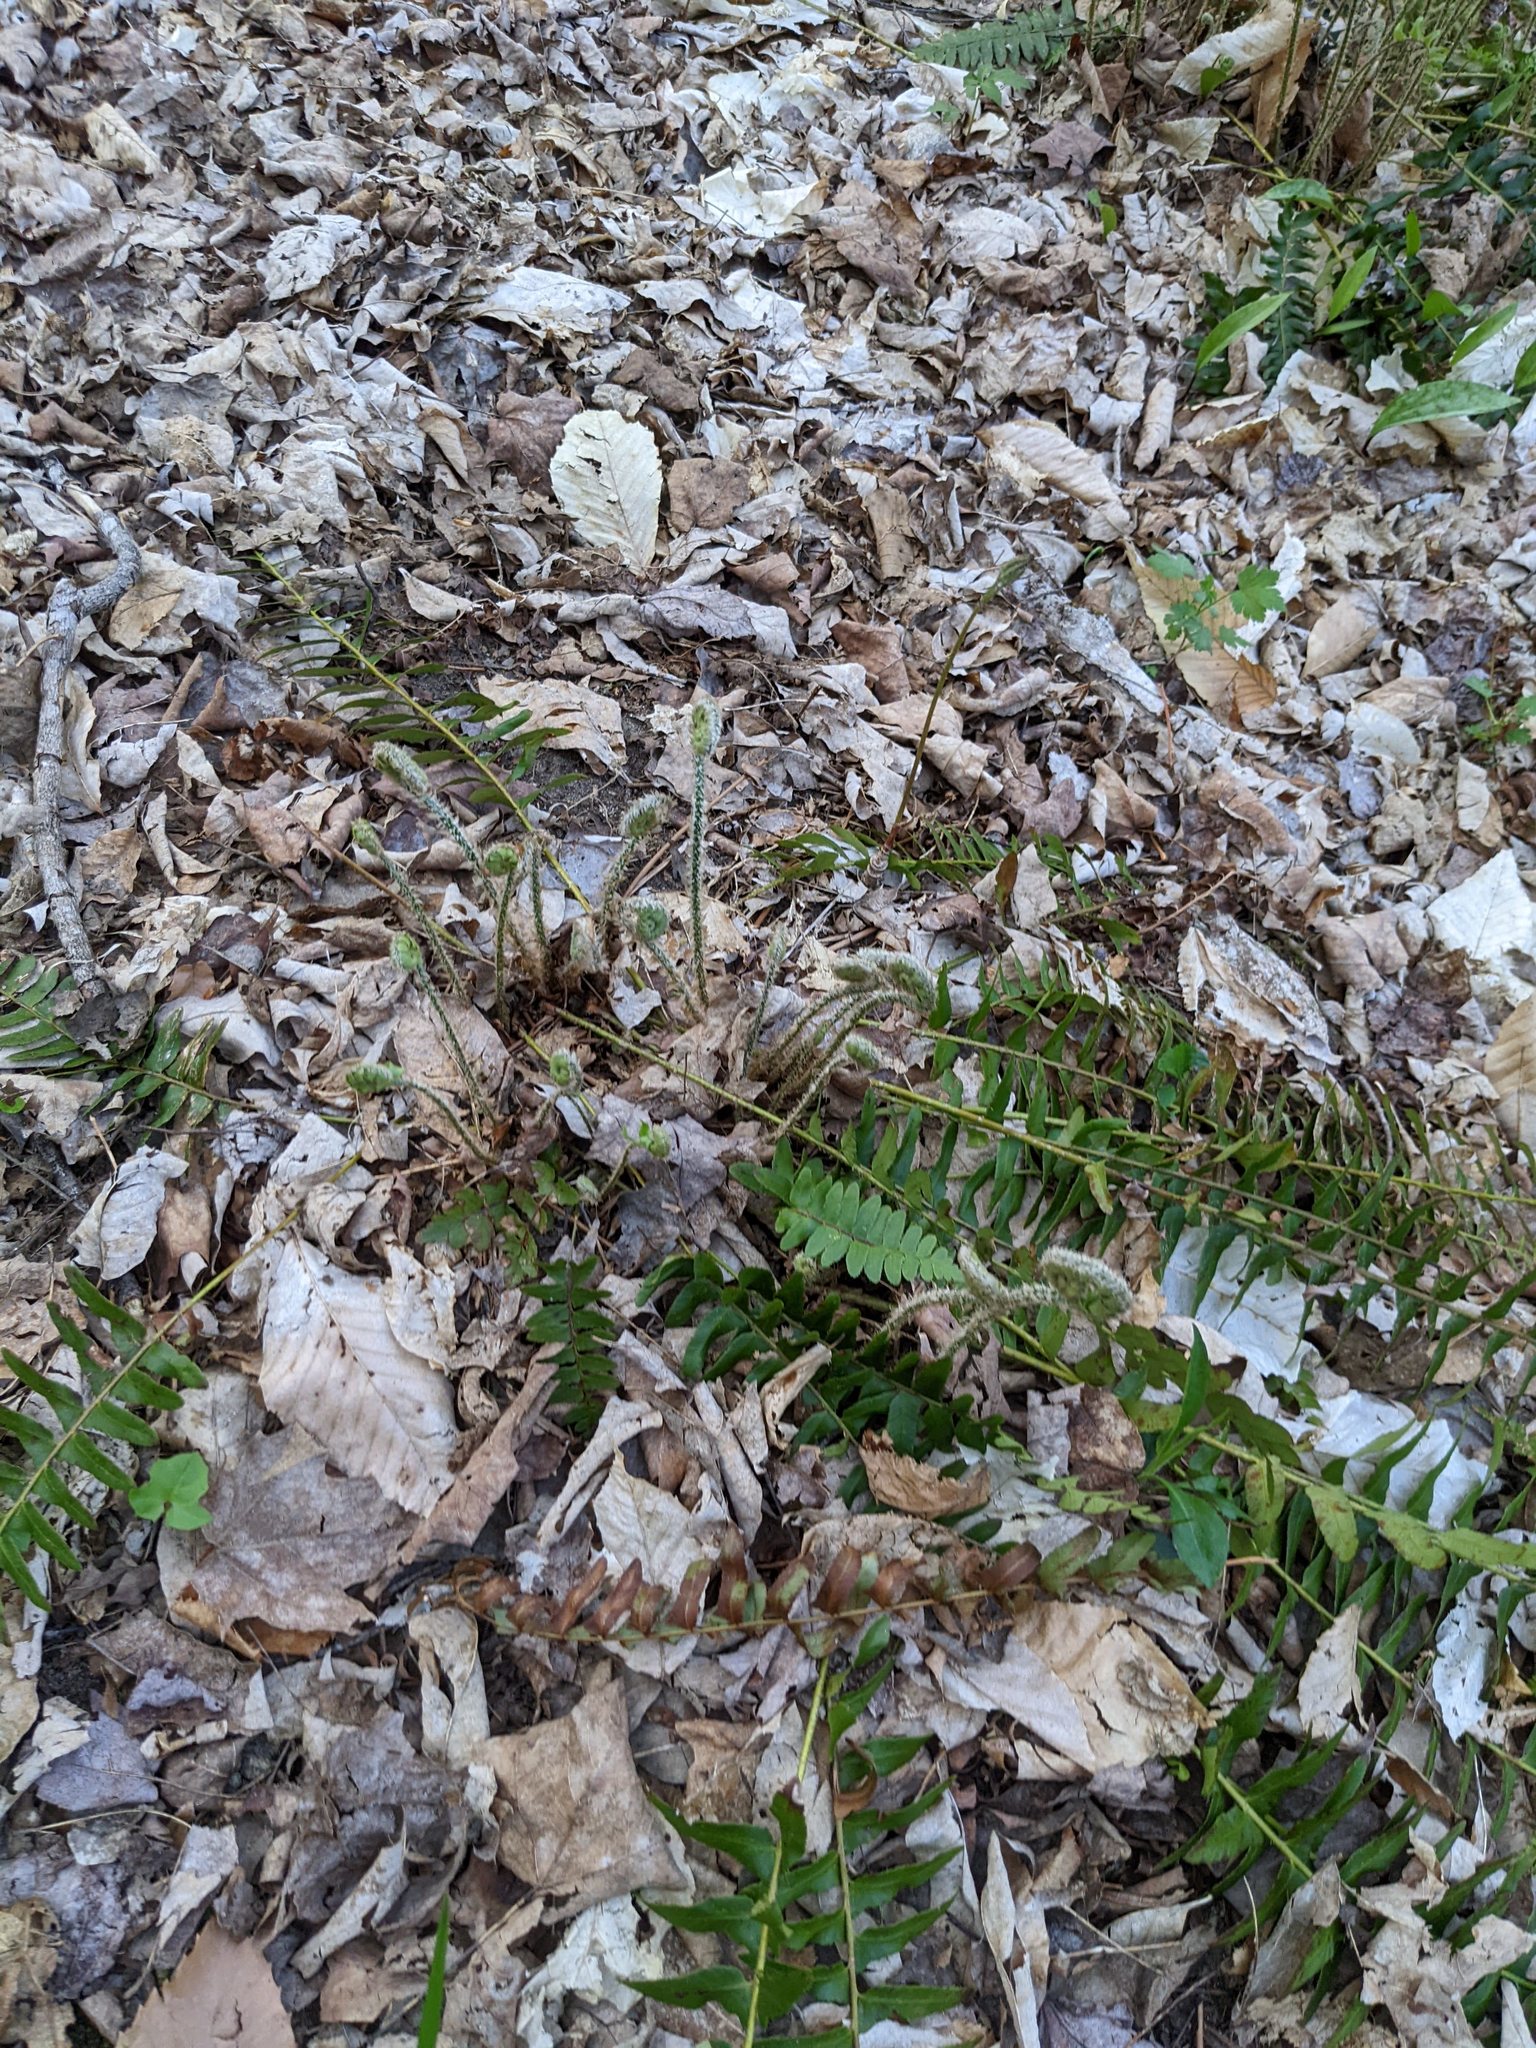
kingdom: Plantae
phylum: Tracheophyta
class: Polypodiopsida
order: Polypodiales
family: Dryopteridaceae
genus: Polystichum
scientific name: Polystichum acrostichoides
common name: Christmas fern
